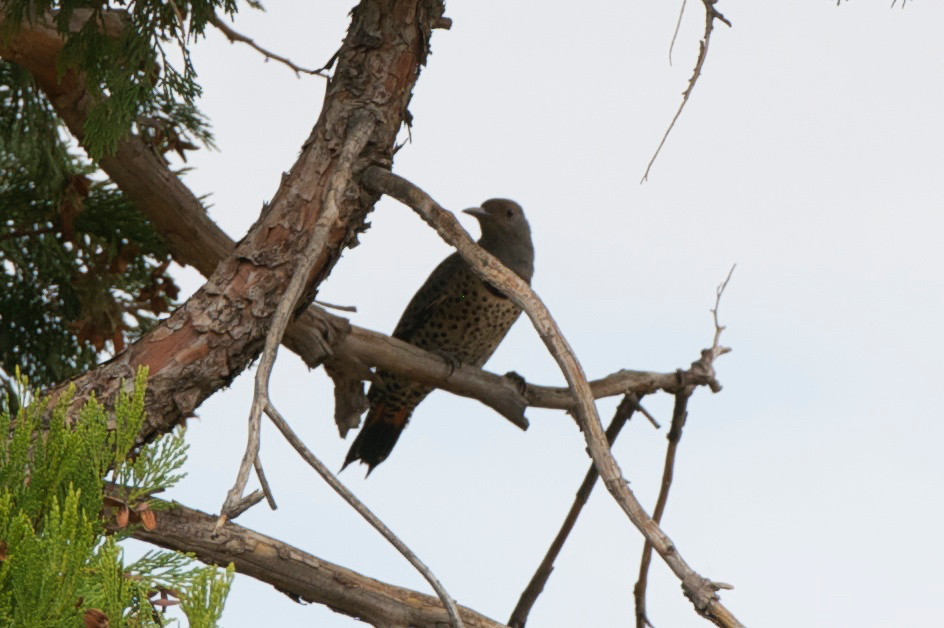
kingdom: Animalia
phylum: Chordata
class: Aves
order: Piciformes
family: Picidae
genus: Colaptes
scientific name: Colaptes auratus
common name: Northern flicker
